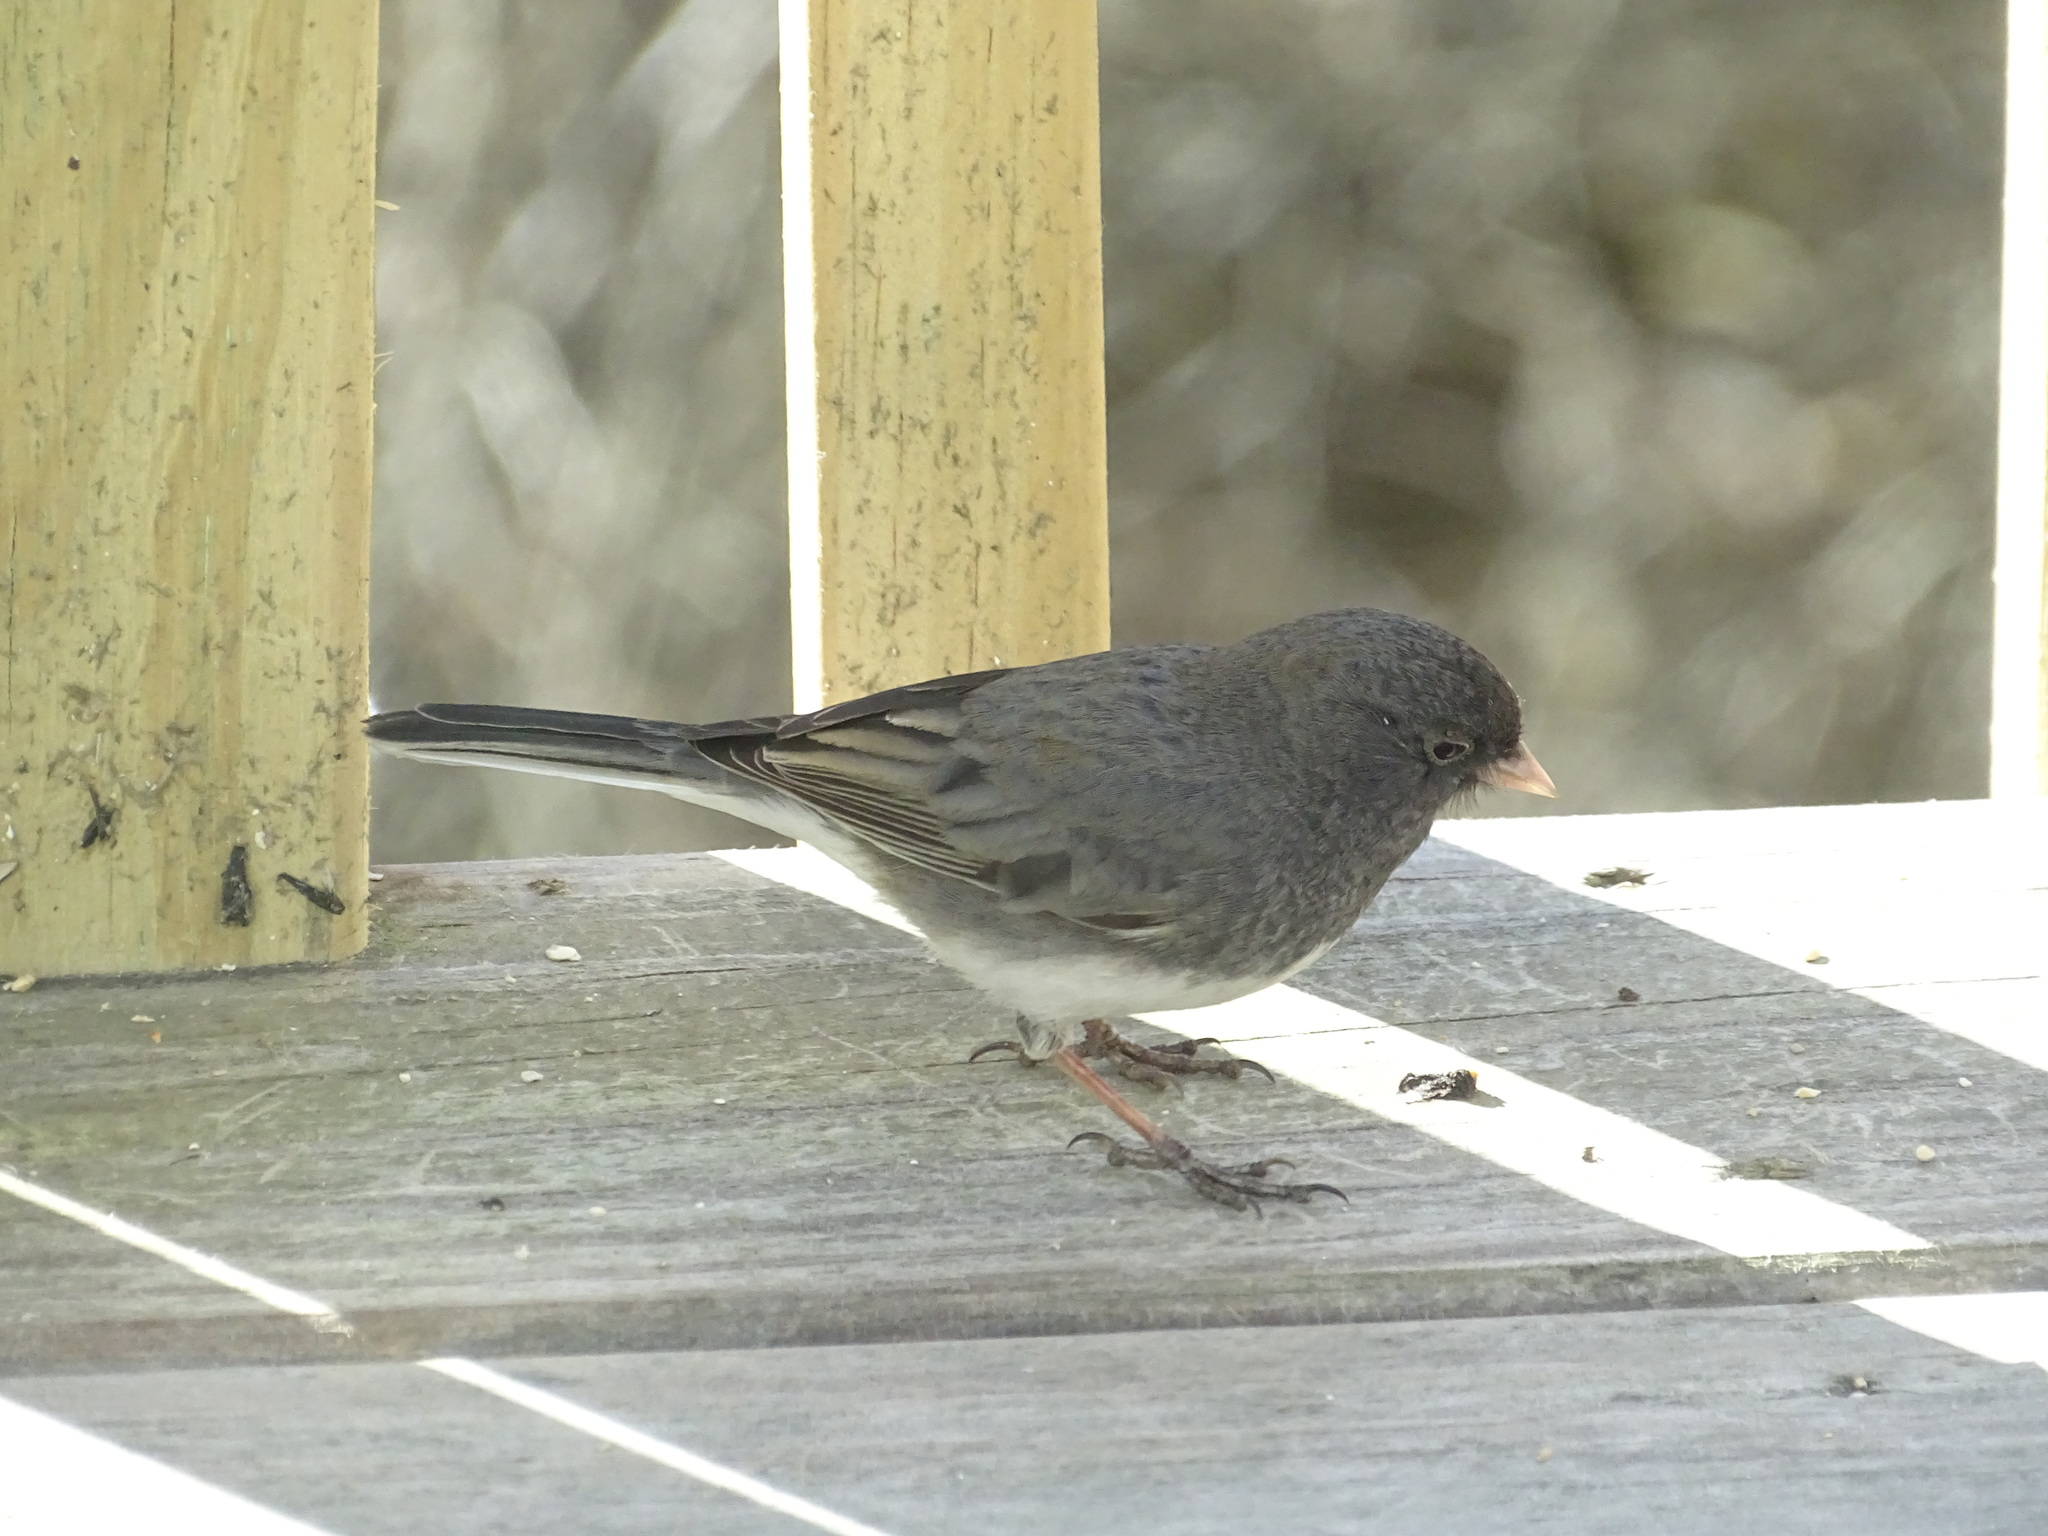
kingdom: Animalia
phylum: Chordata
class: Aves
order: Passeriformes
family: Passerellidae
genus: Junco
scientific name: Junco hyemalis
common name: Dark-eyed junco
